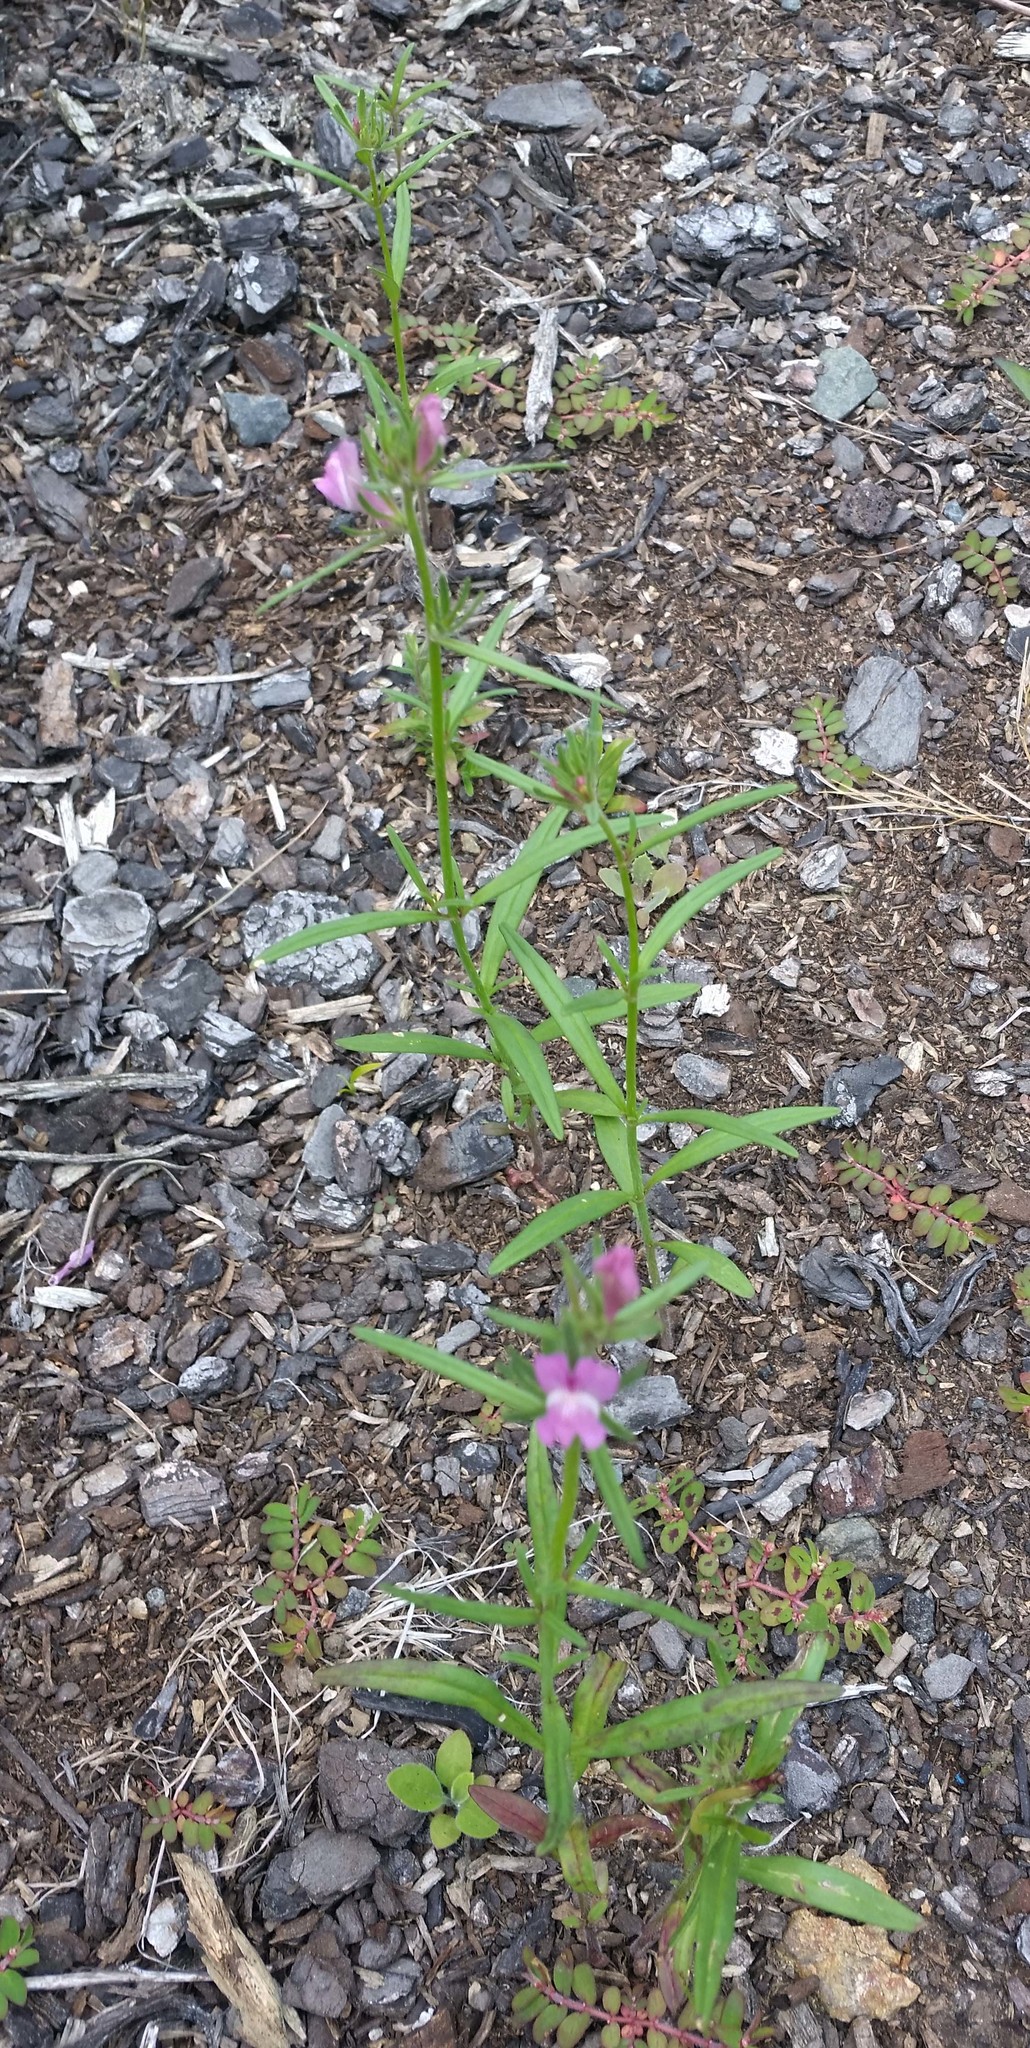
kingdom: Plantae
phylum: Tracheophyta
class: Magnoliopsida
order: Lamiales
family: Plantaginaceae
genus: Misopates
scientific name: Misopates orontium
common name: Weasel's-snout
